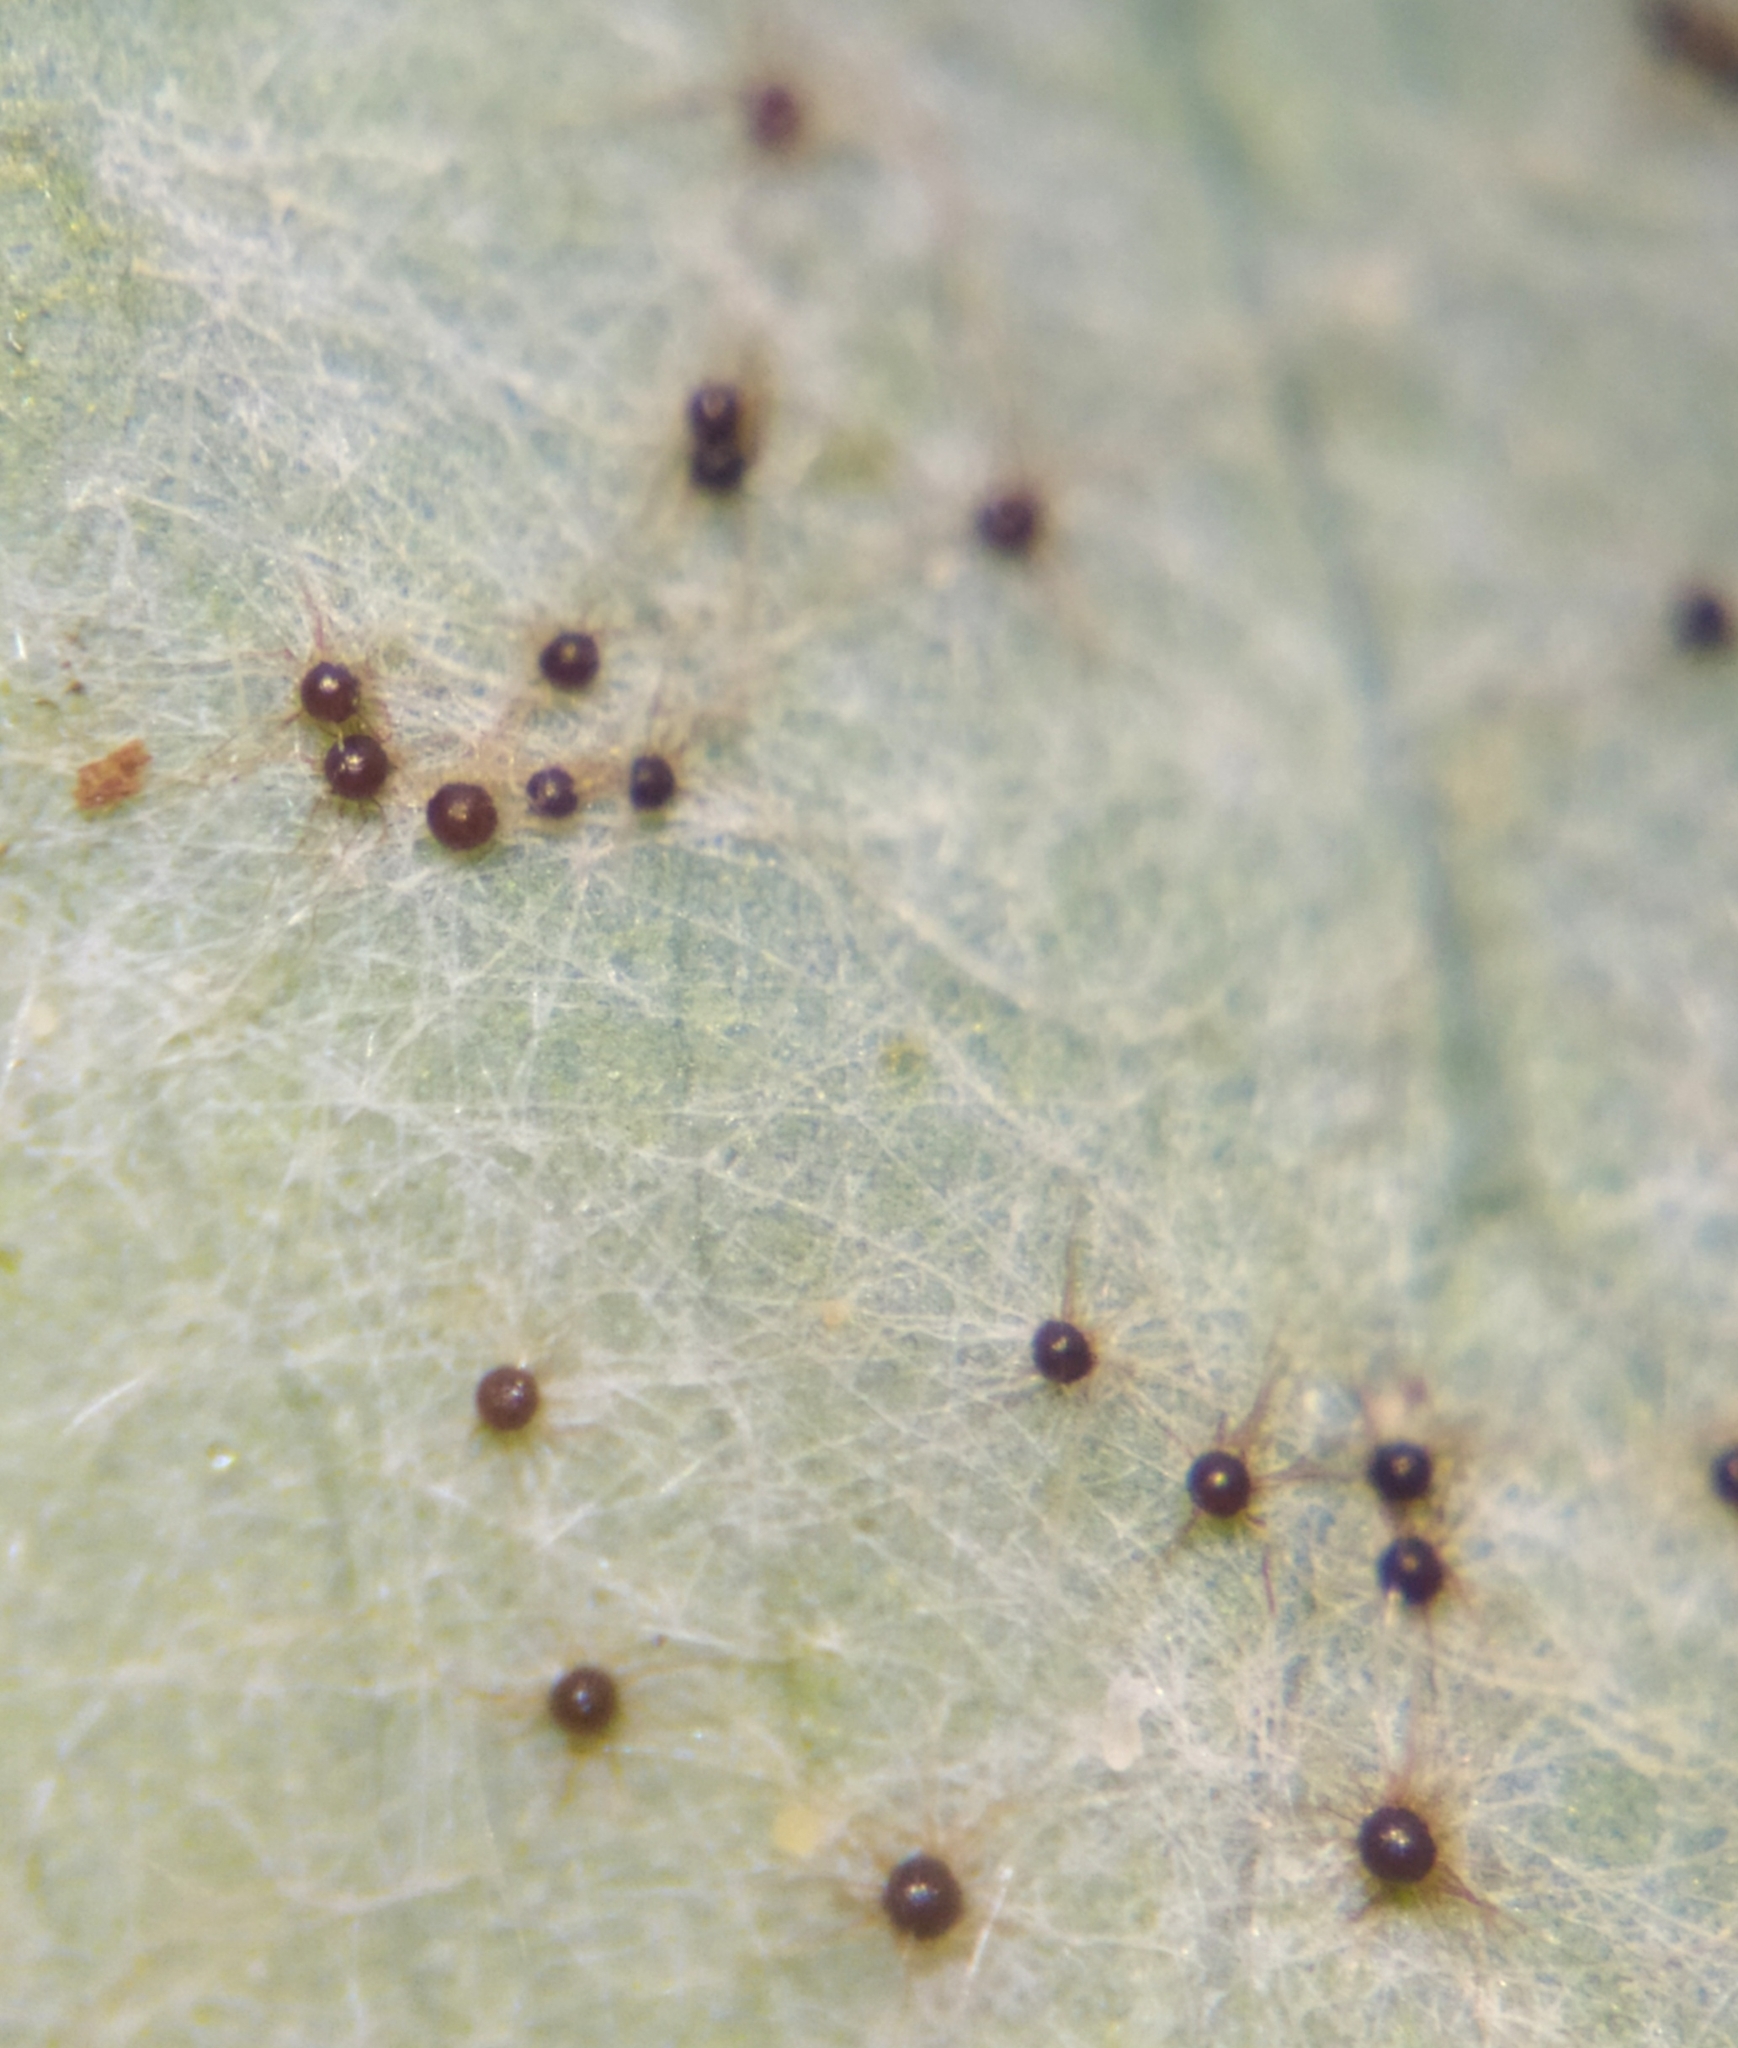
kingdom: Fungi
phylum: Ascomycota
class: Leotiomycetes
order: Helotiales
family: Erysiphaceae
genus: Erysiphe
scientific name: Erysiphe aquilegiae
